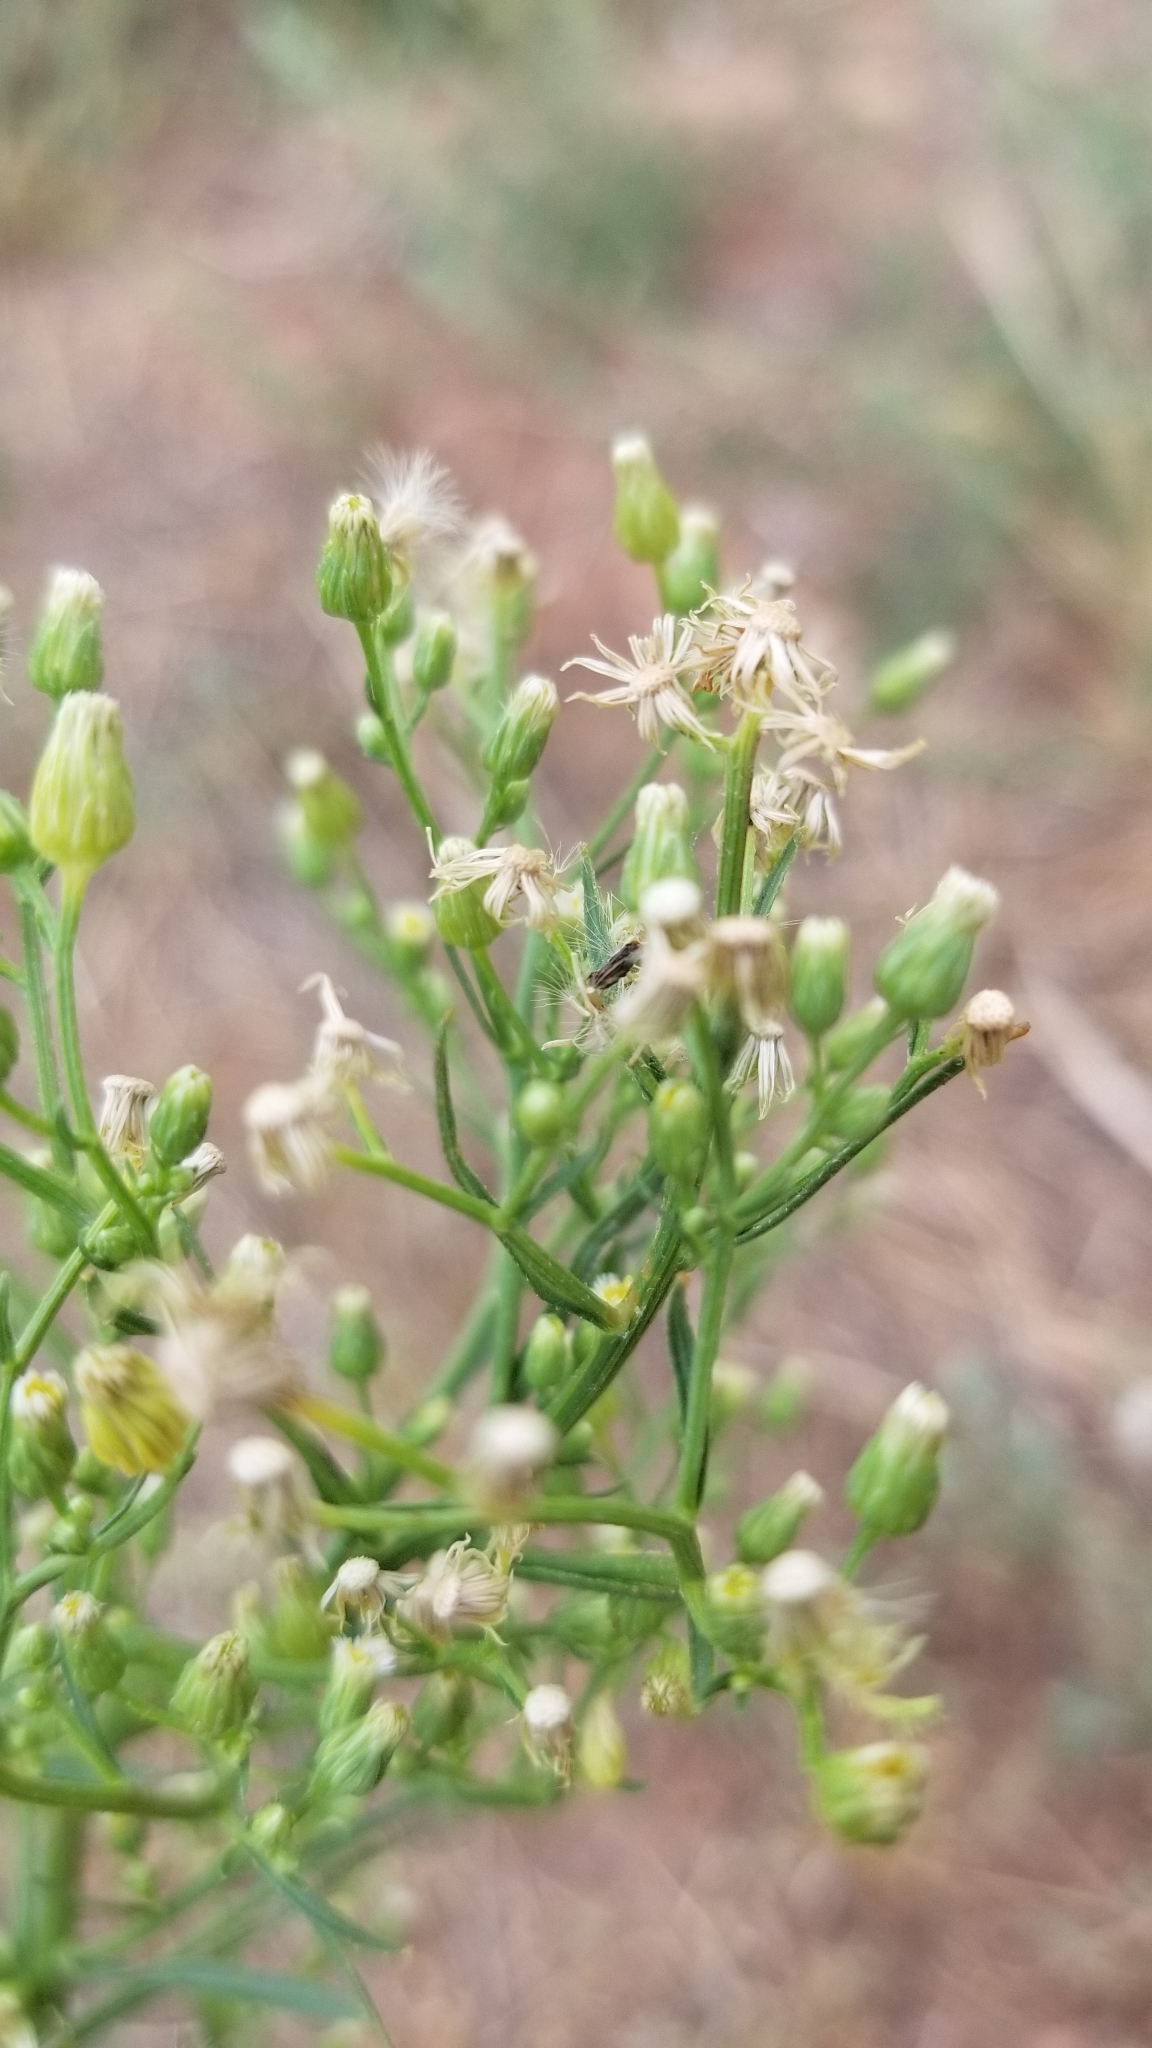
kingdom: Plantae
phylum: Tracheophyta
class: Magnoliopsida
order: Asterales
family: Asteraceae
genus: Erigeron
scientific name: Erigeron canadensis
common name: Canadian fleabane
